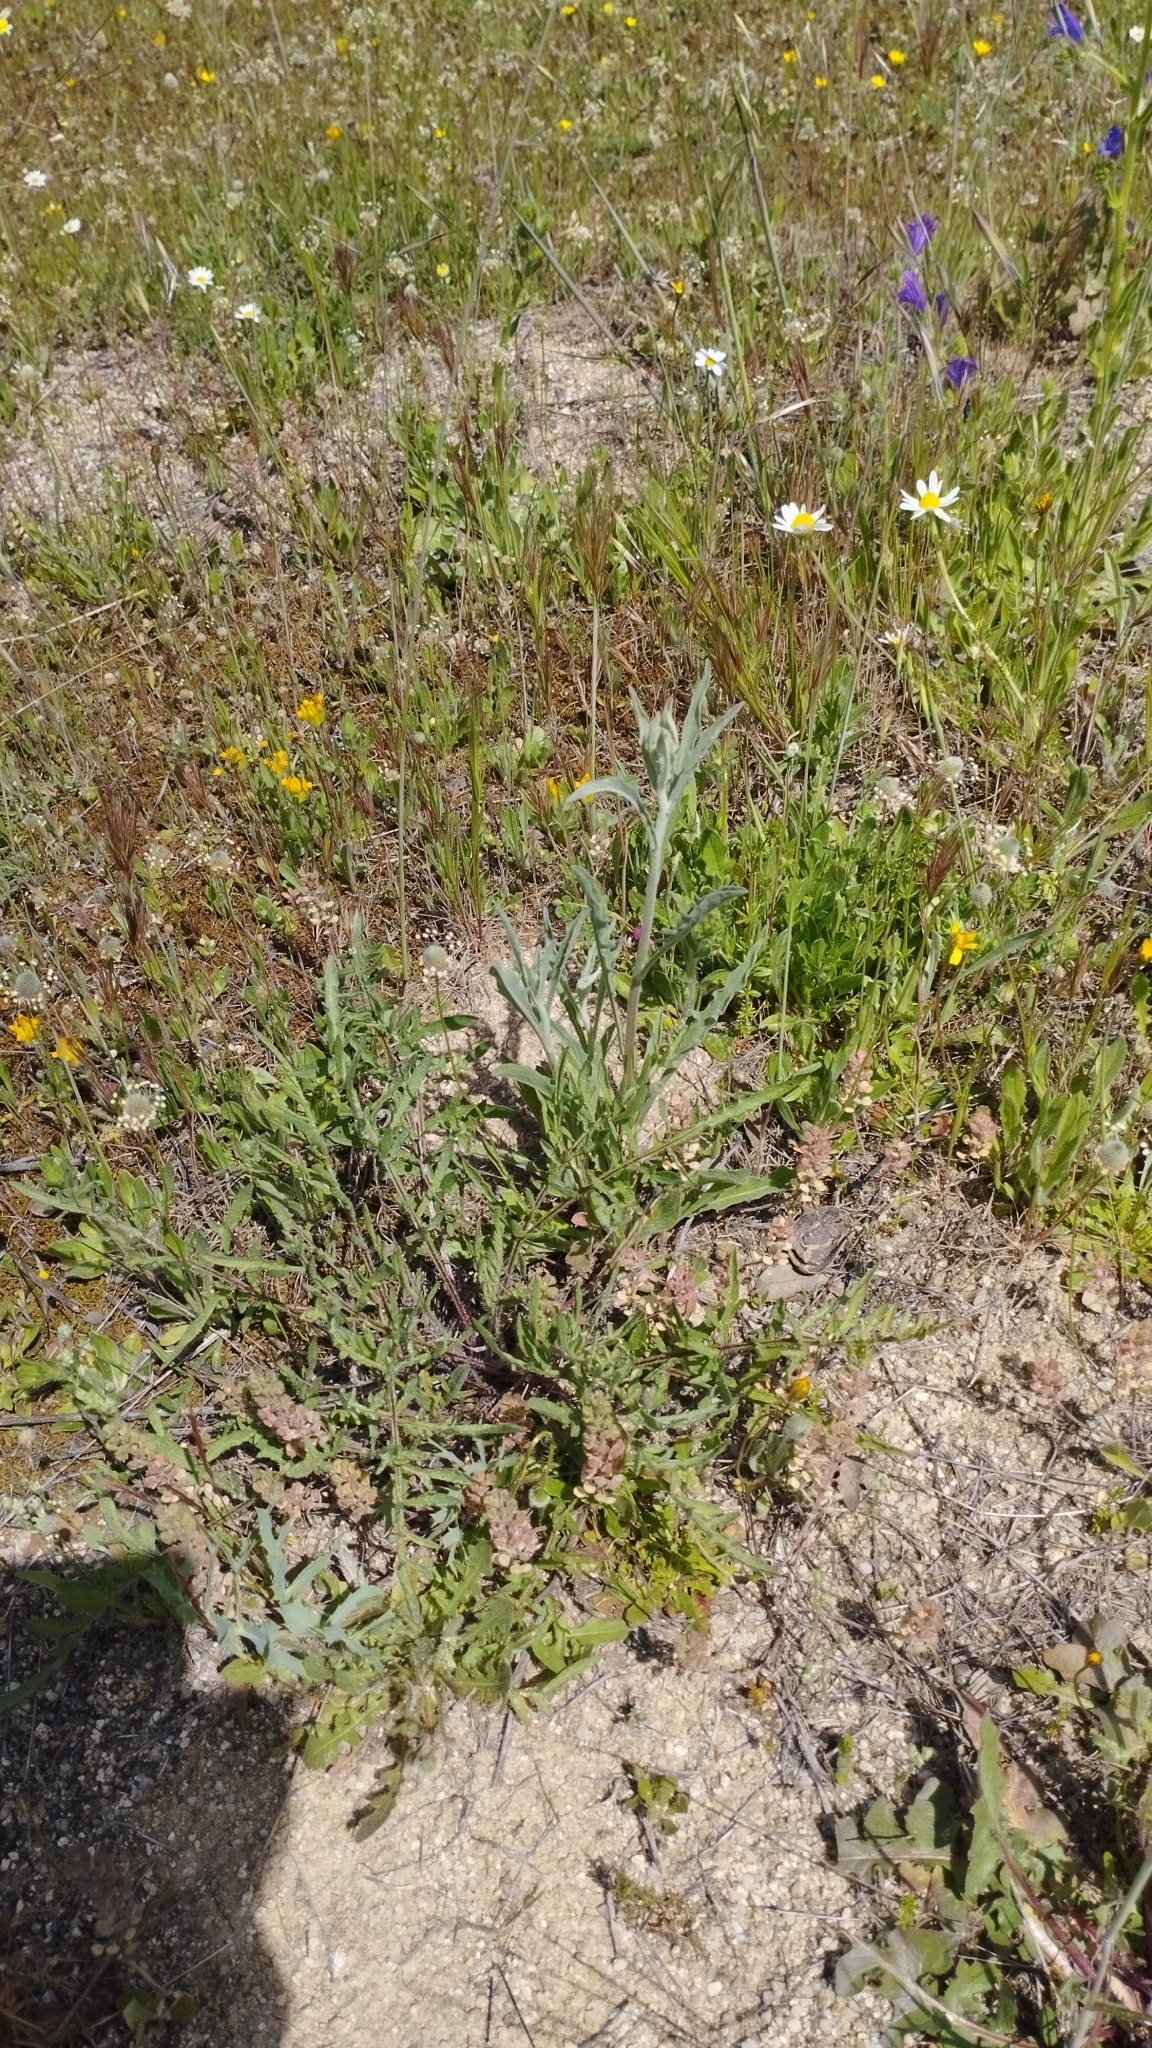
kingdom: Plantae
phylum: Tracheophyta
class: Magnoliopsida
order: Asterales
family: Asteraceae
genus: Centaurea
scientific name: Centaurea ornata
